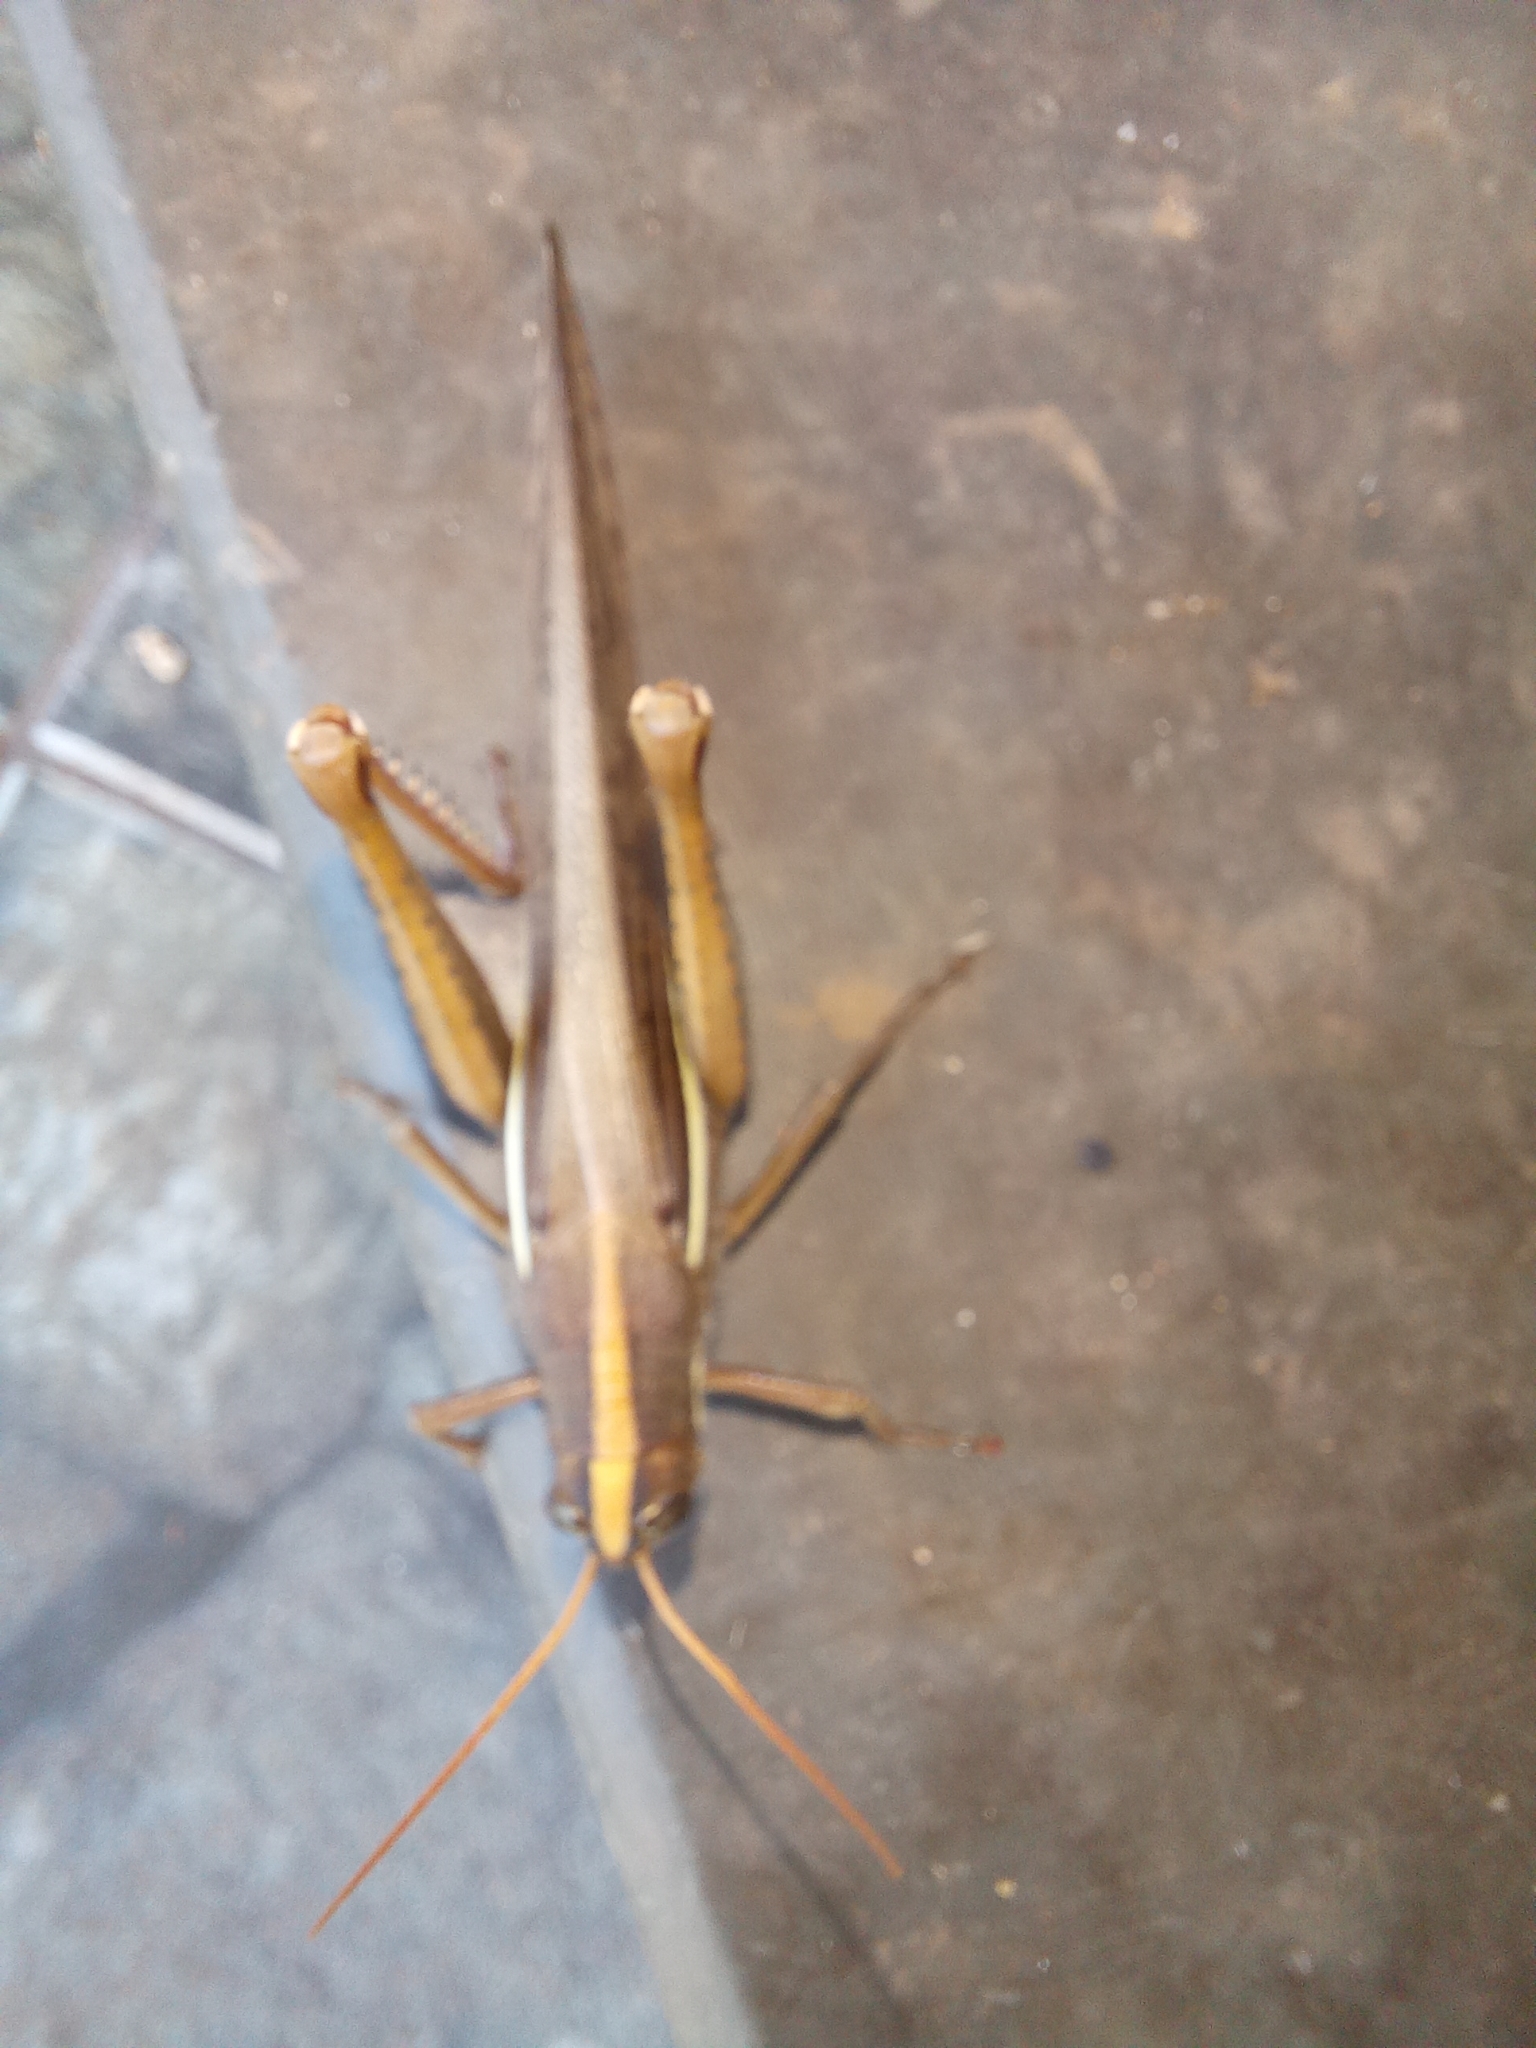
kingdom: Animalia
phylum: Arthropoda
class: Insecta
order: Orthoptera
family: Acrididae
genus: Schistocerca
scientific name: Schistocerca flavofasciata
